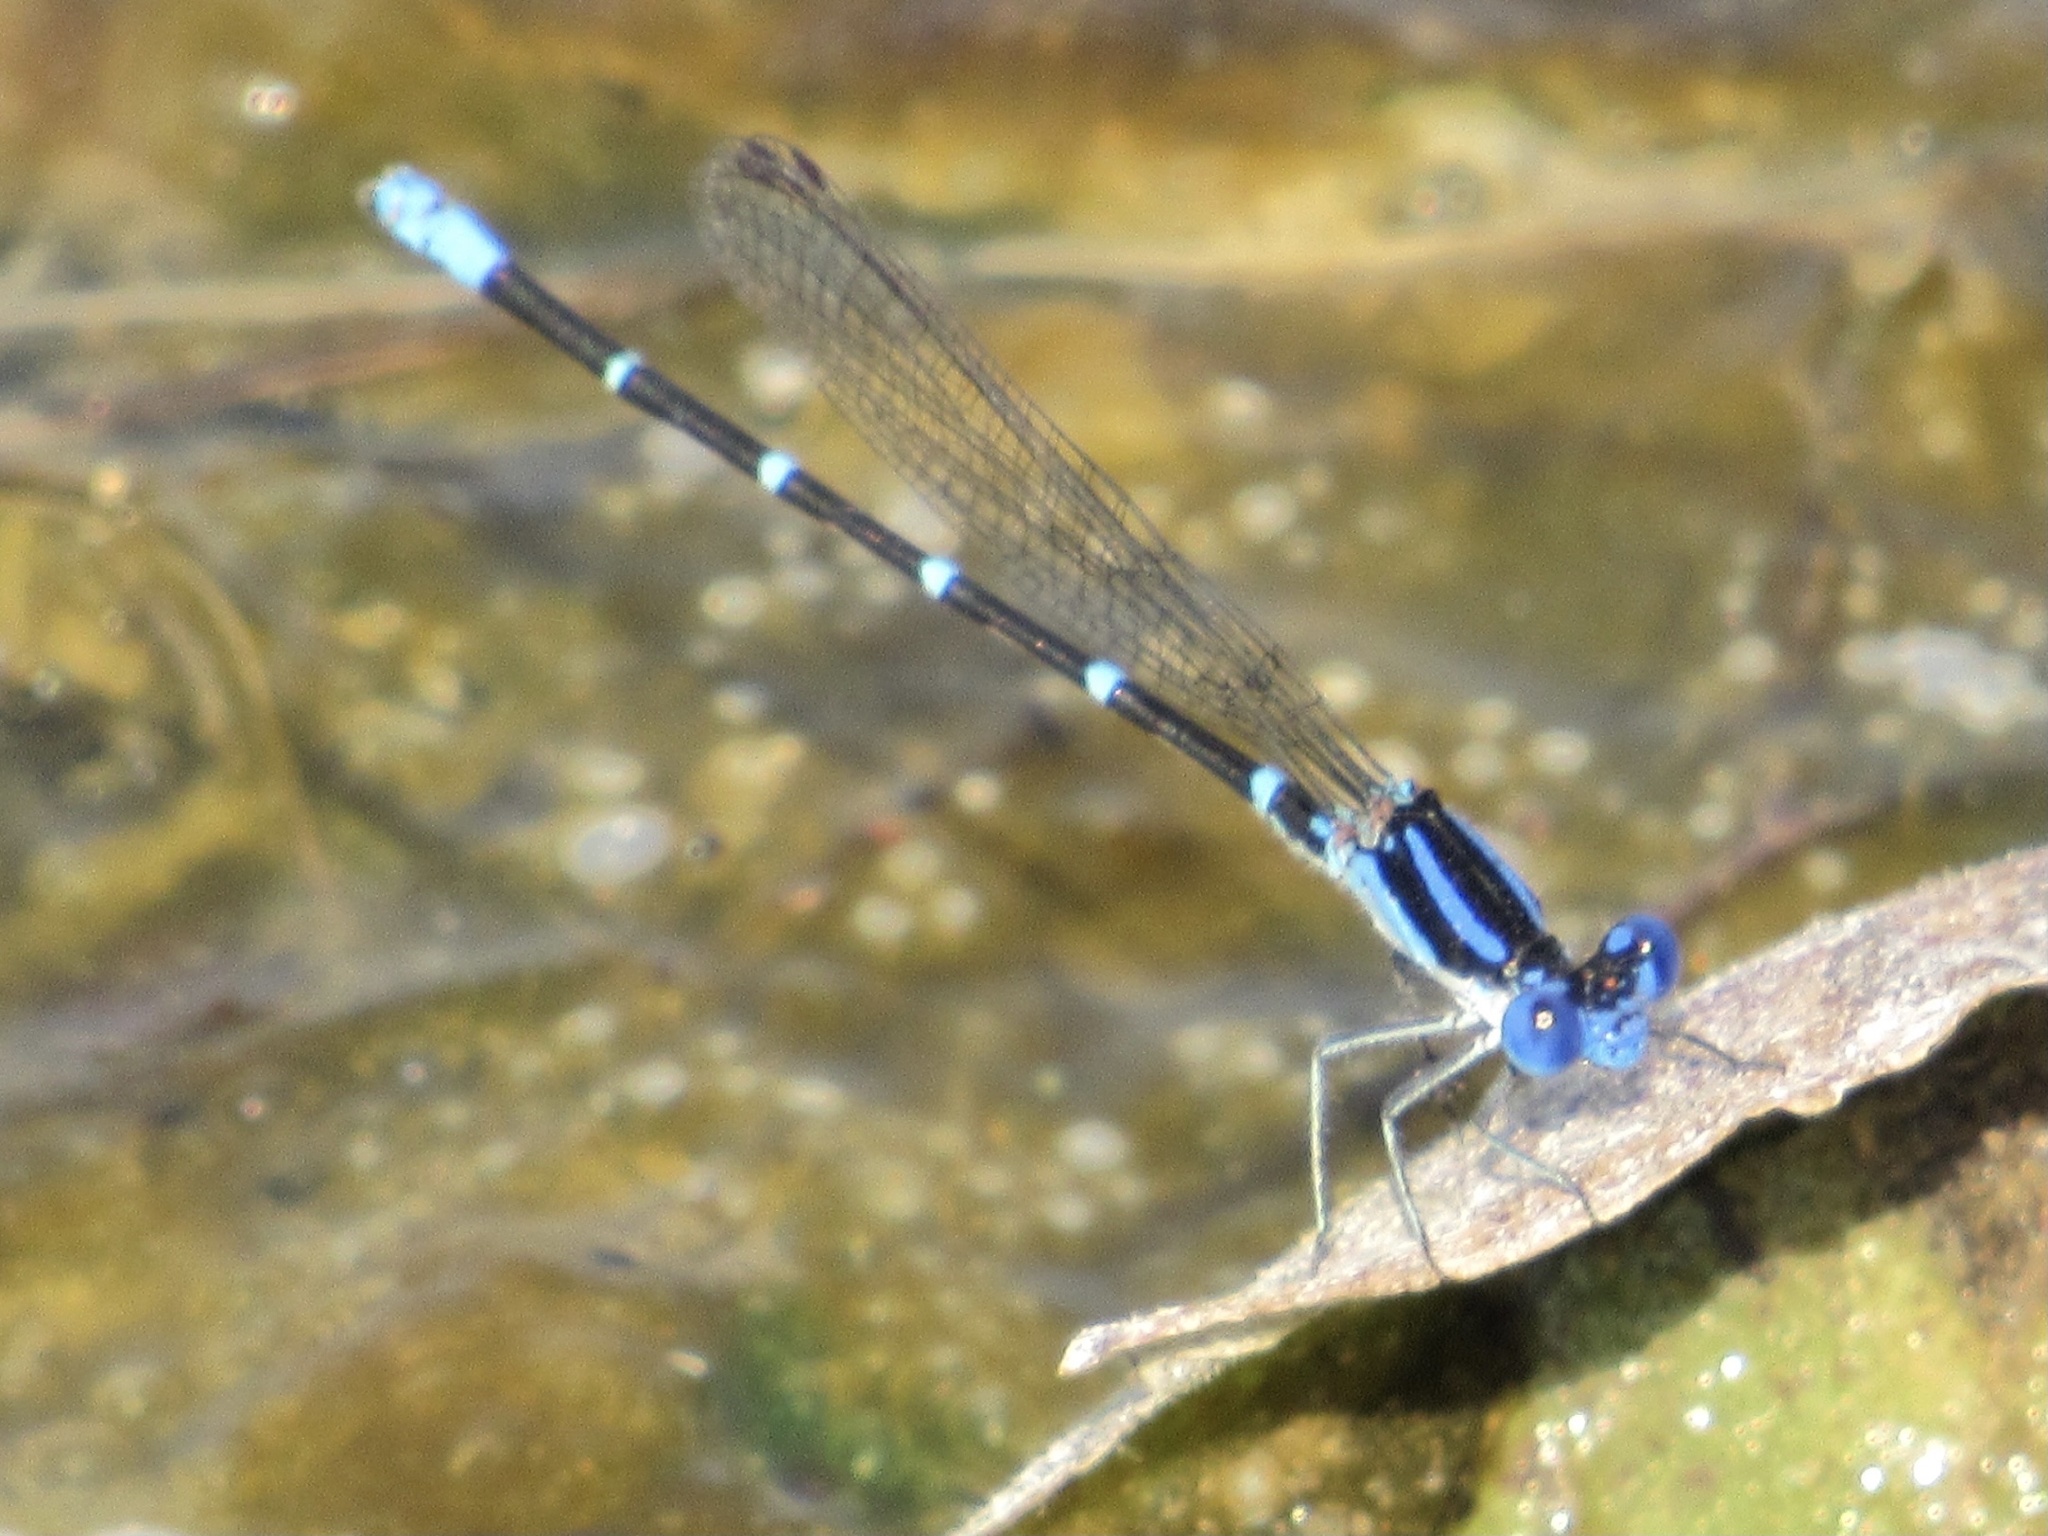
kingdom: Animalia
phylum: Arthropoda
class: Insecta
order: Odonata
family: Coenagrionidae
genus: Argia
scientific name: Argia sedula
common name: Blue-ringed dancer
